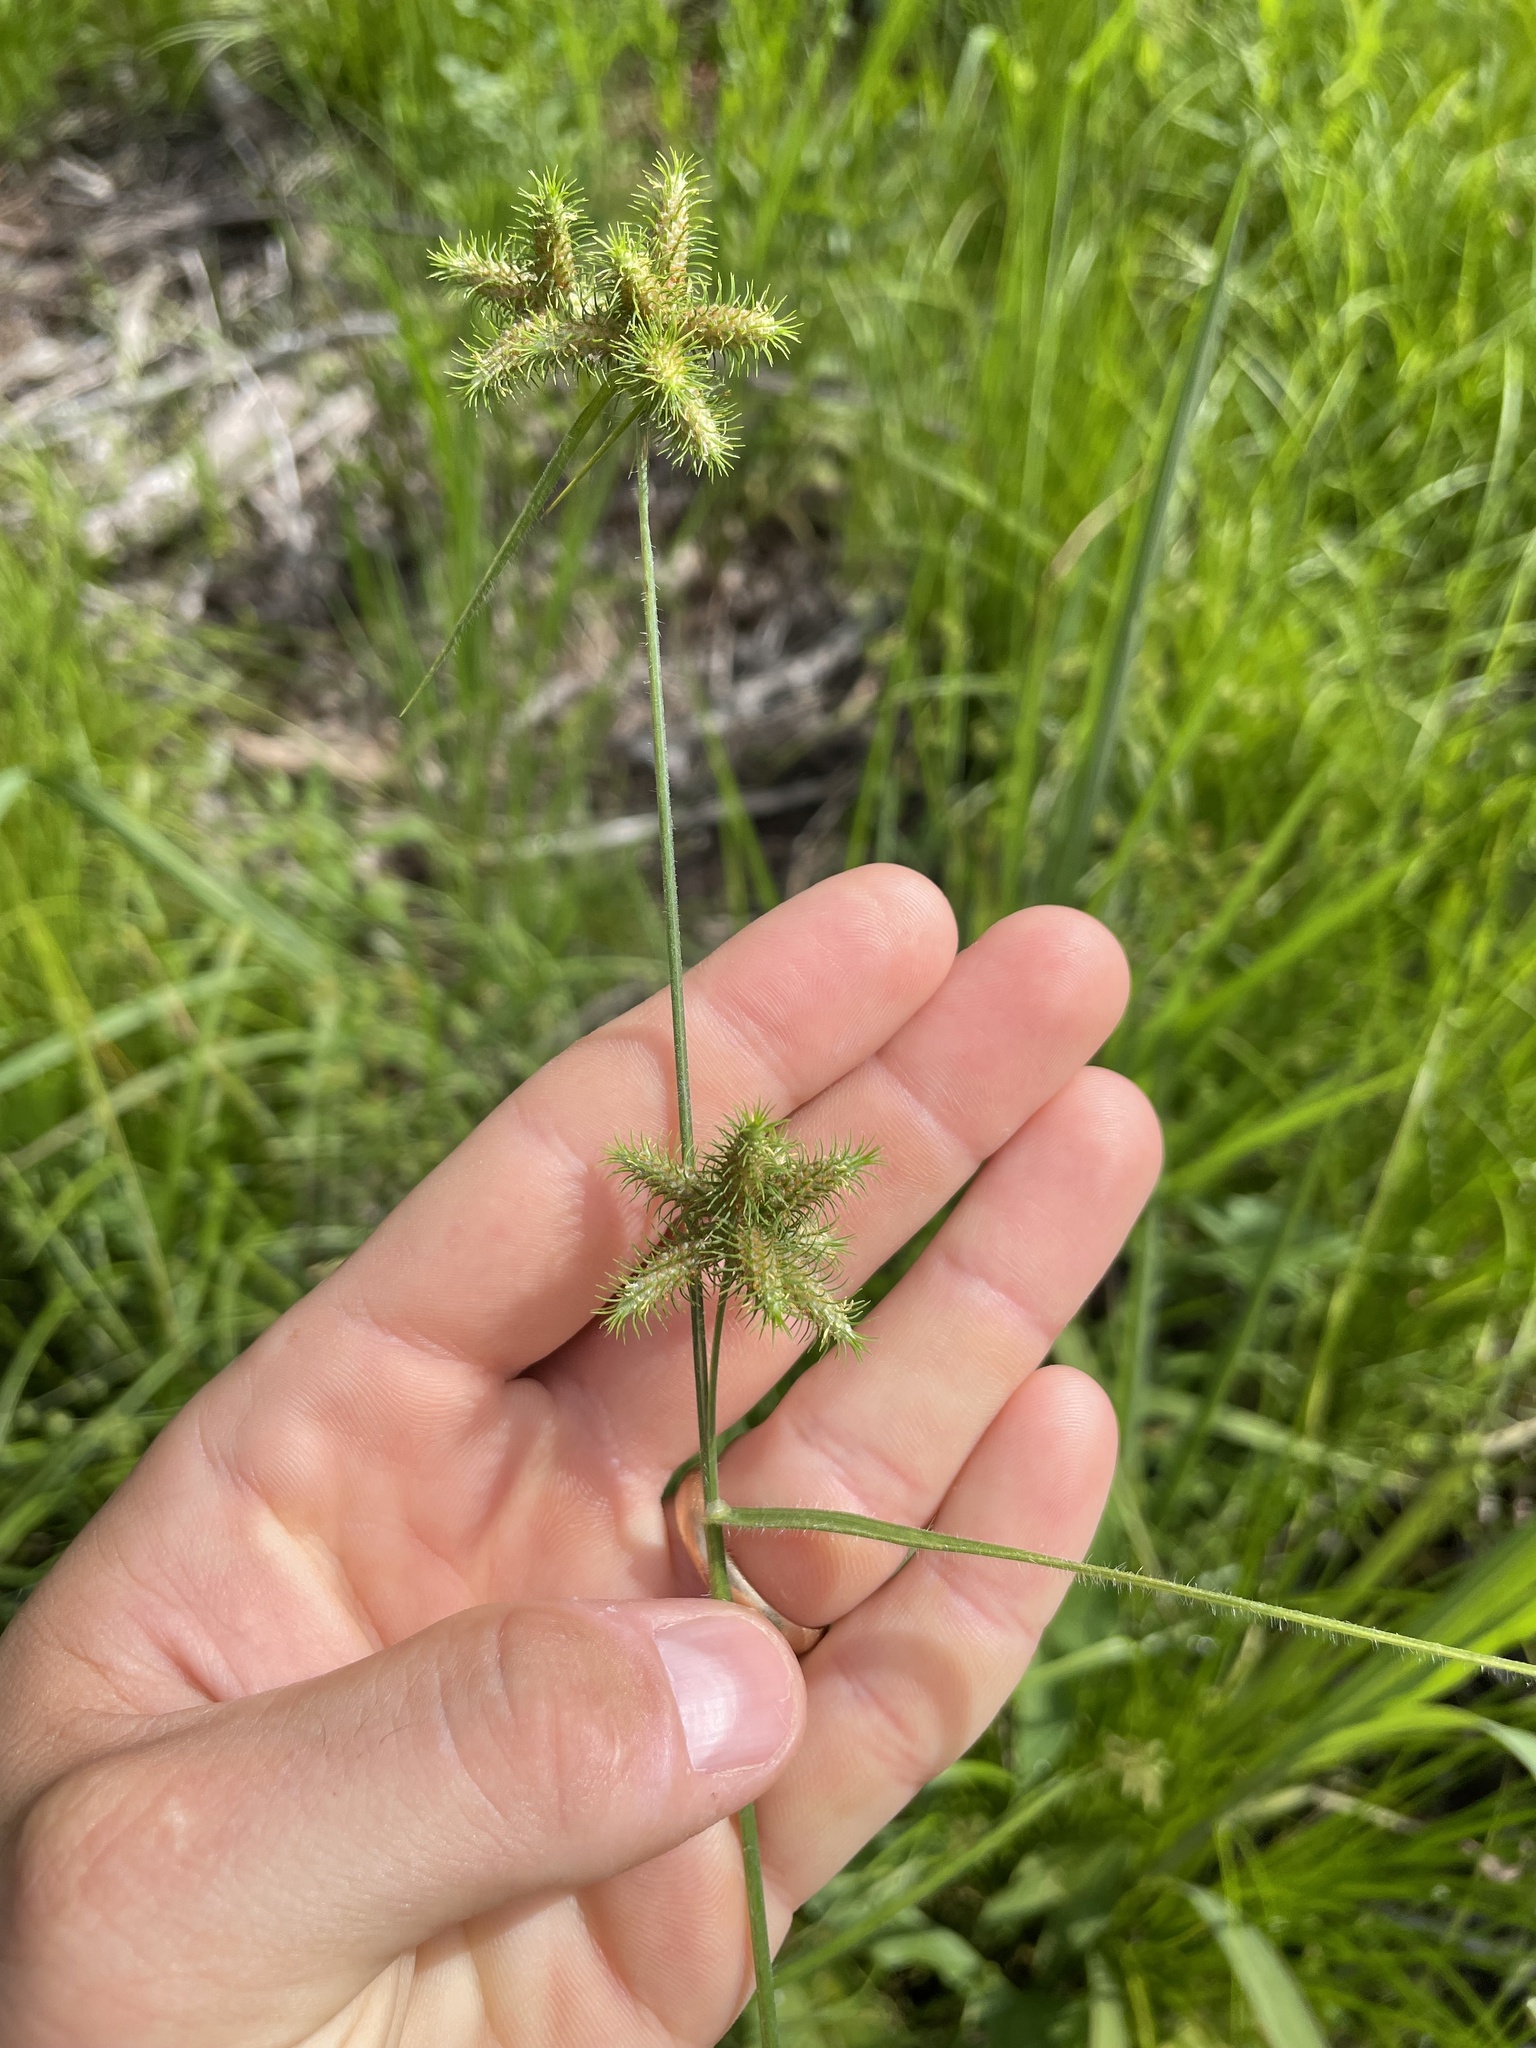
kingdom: Plantae
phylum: Tracheophyta
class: Liliopsida
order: Poales
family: Cyperaceae
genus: Fuirena
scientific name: Fuirena squarrosa
